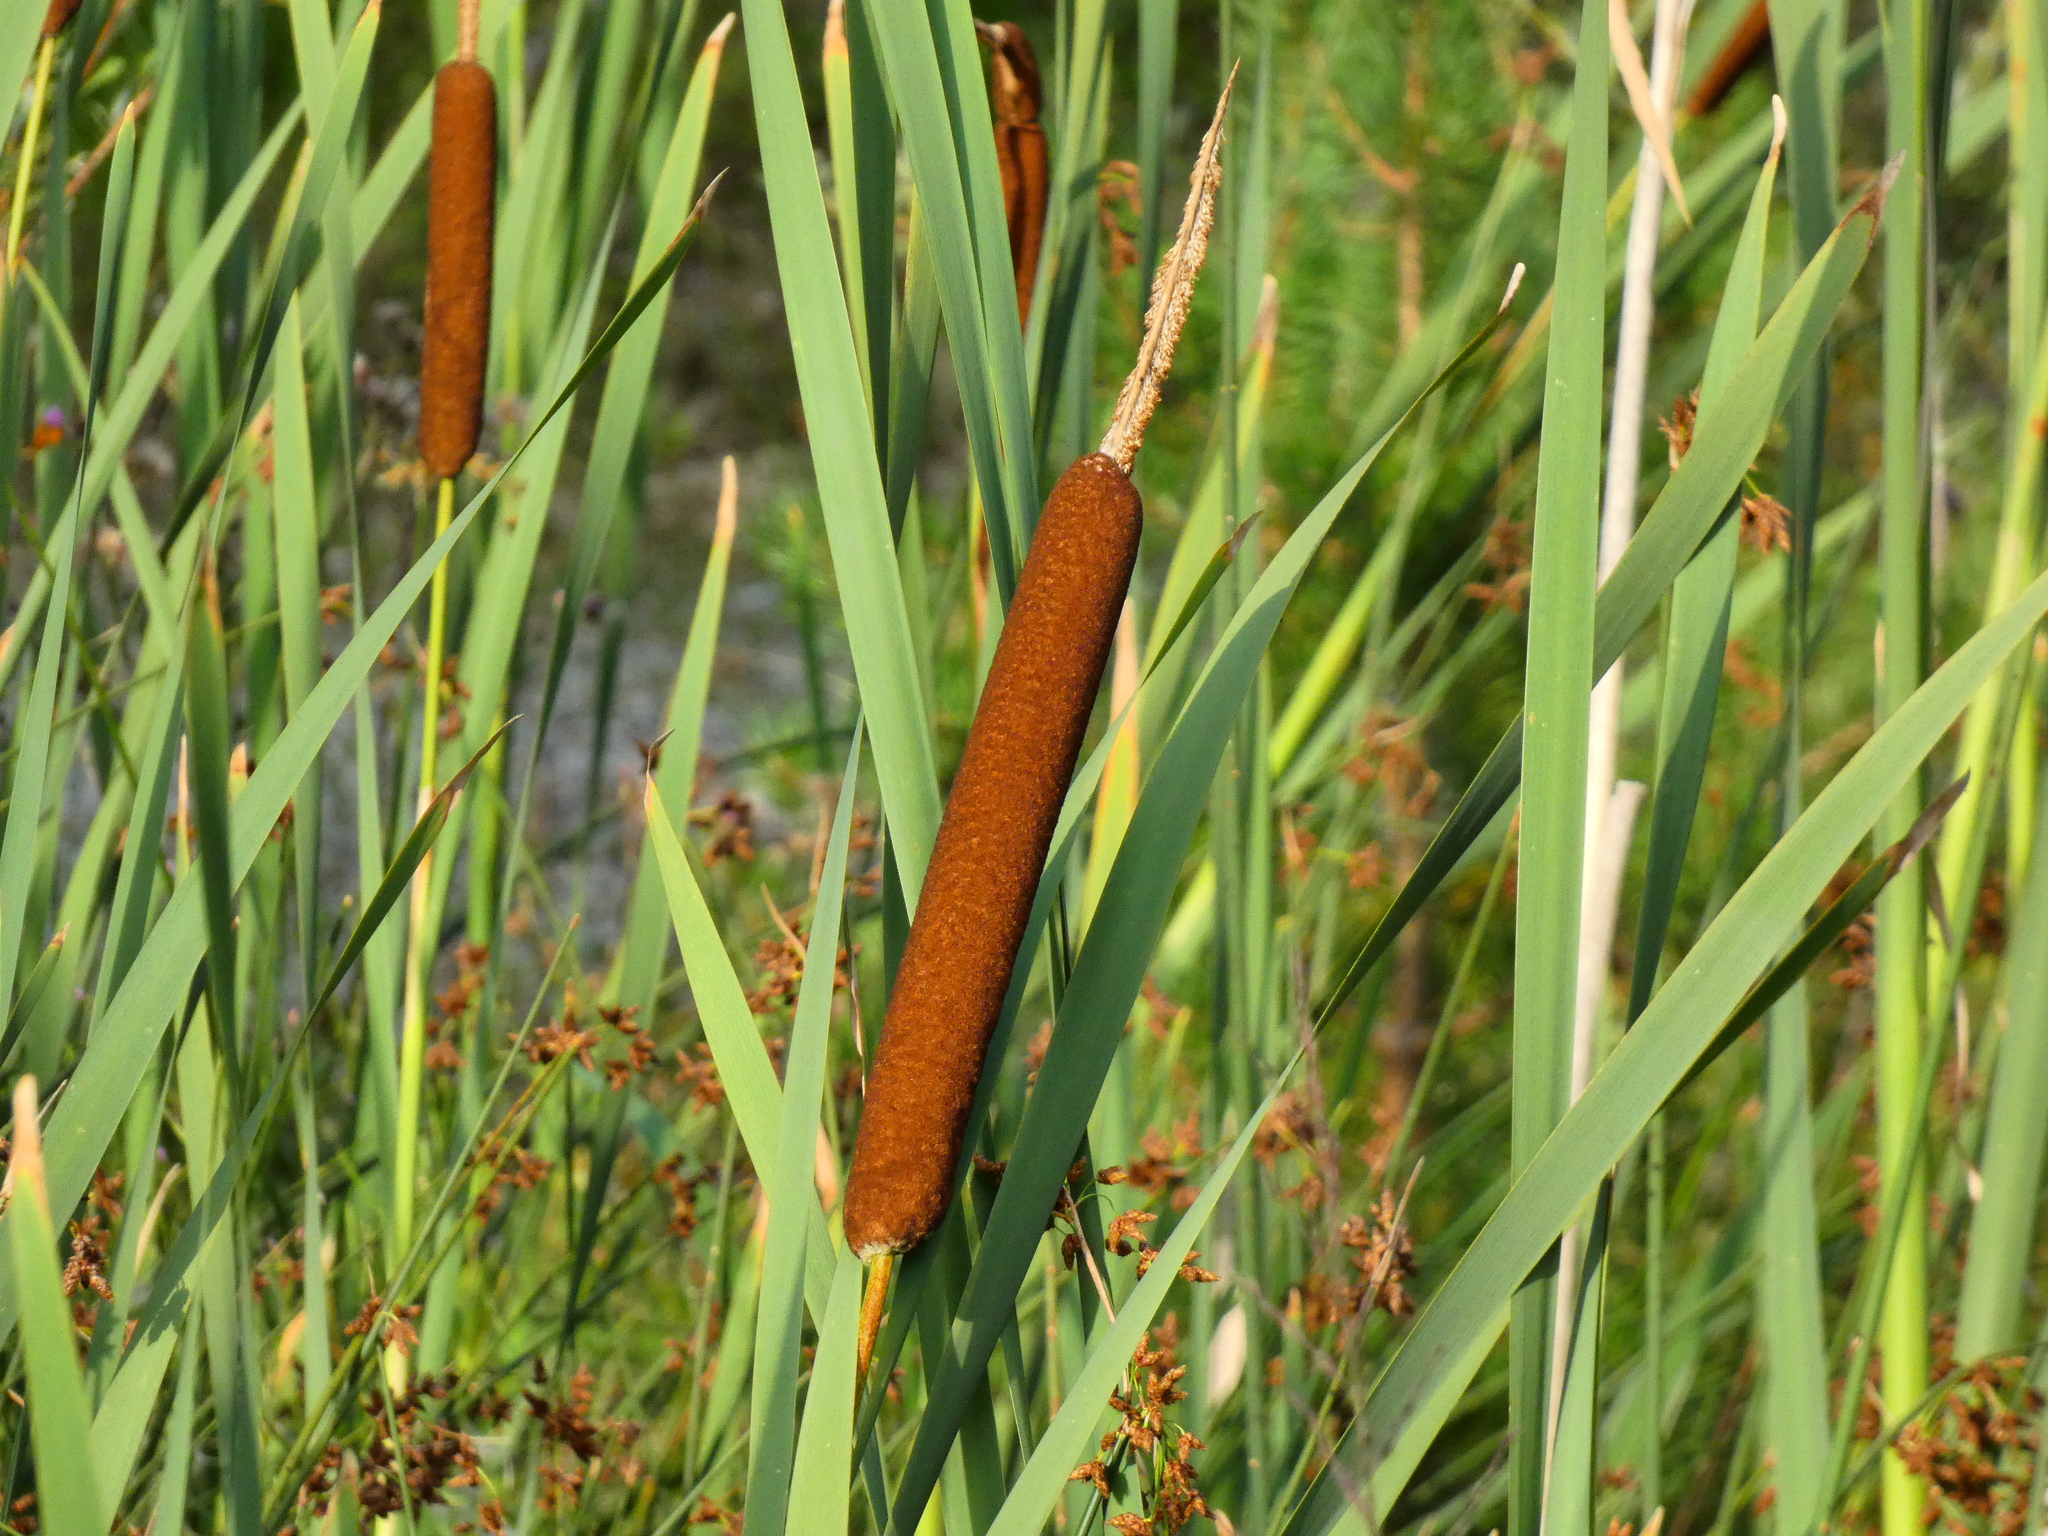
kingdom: Plantae
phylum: Tracheophyta
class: Liliopsida
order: Poales
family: Typhaceae
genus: Typha
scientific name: Typha latifolia
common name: Broadleaf cattail
